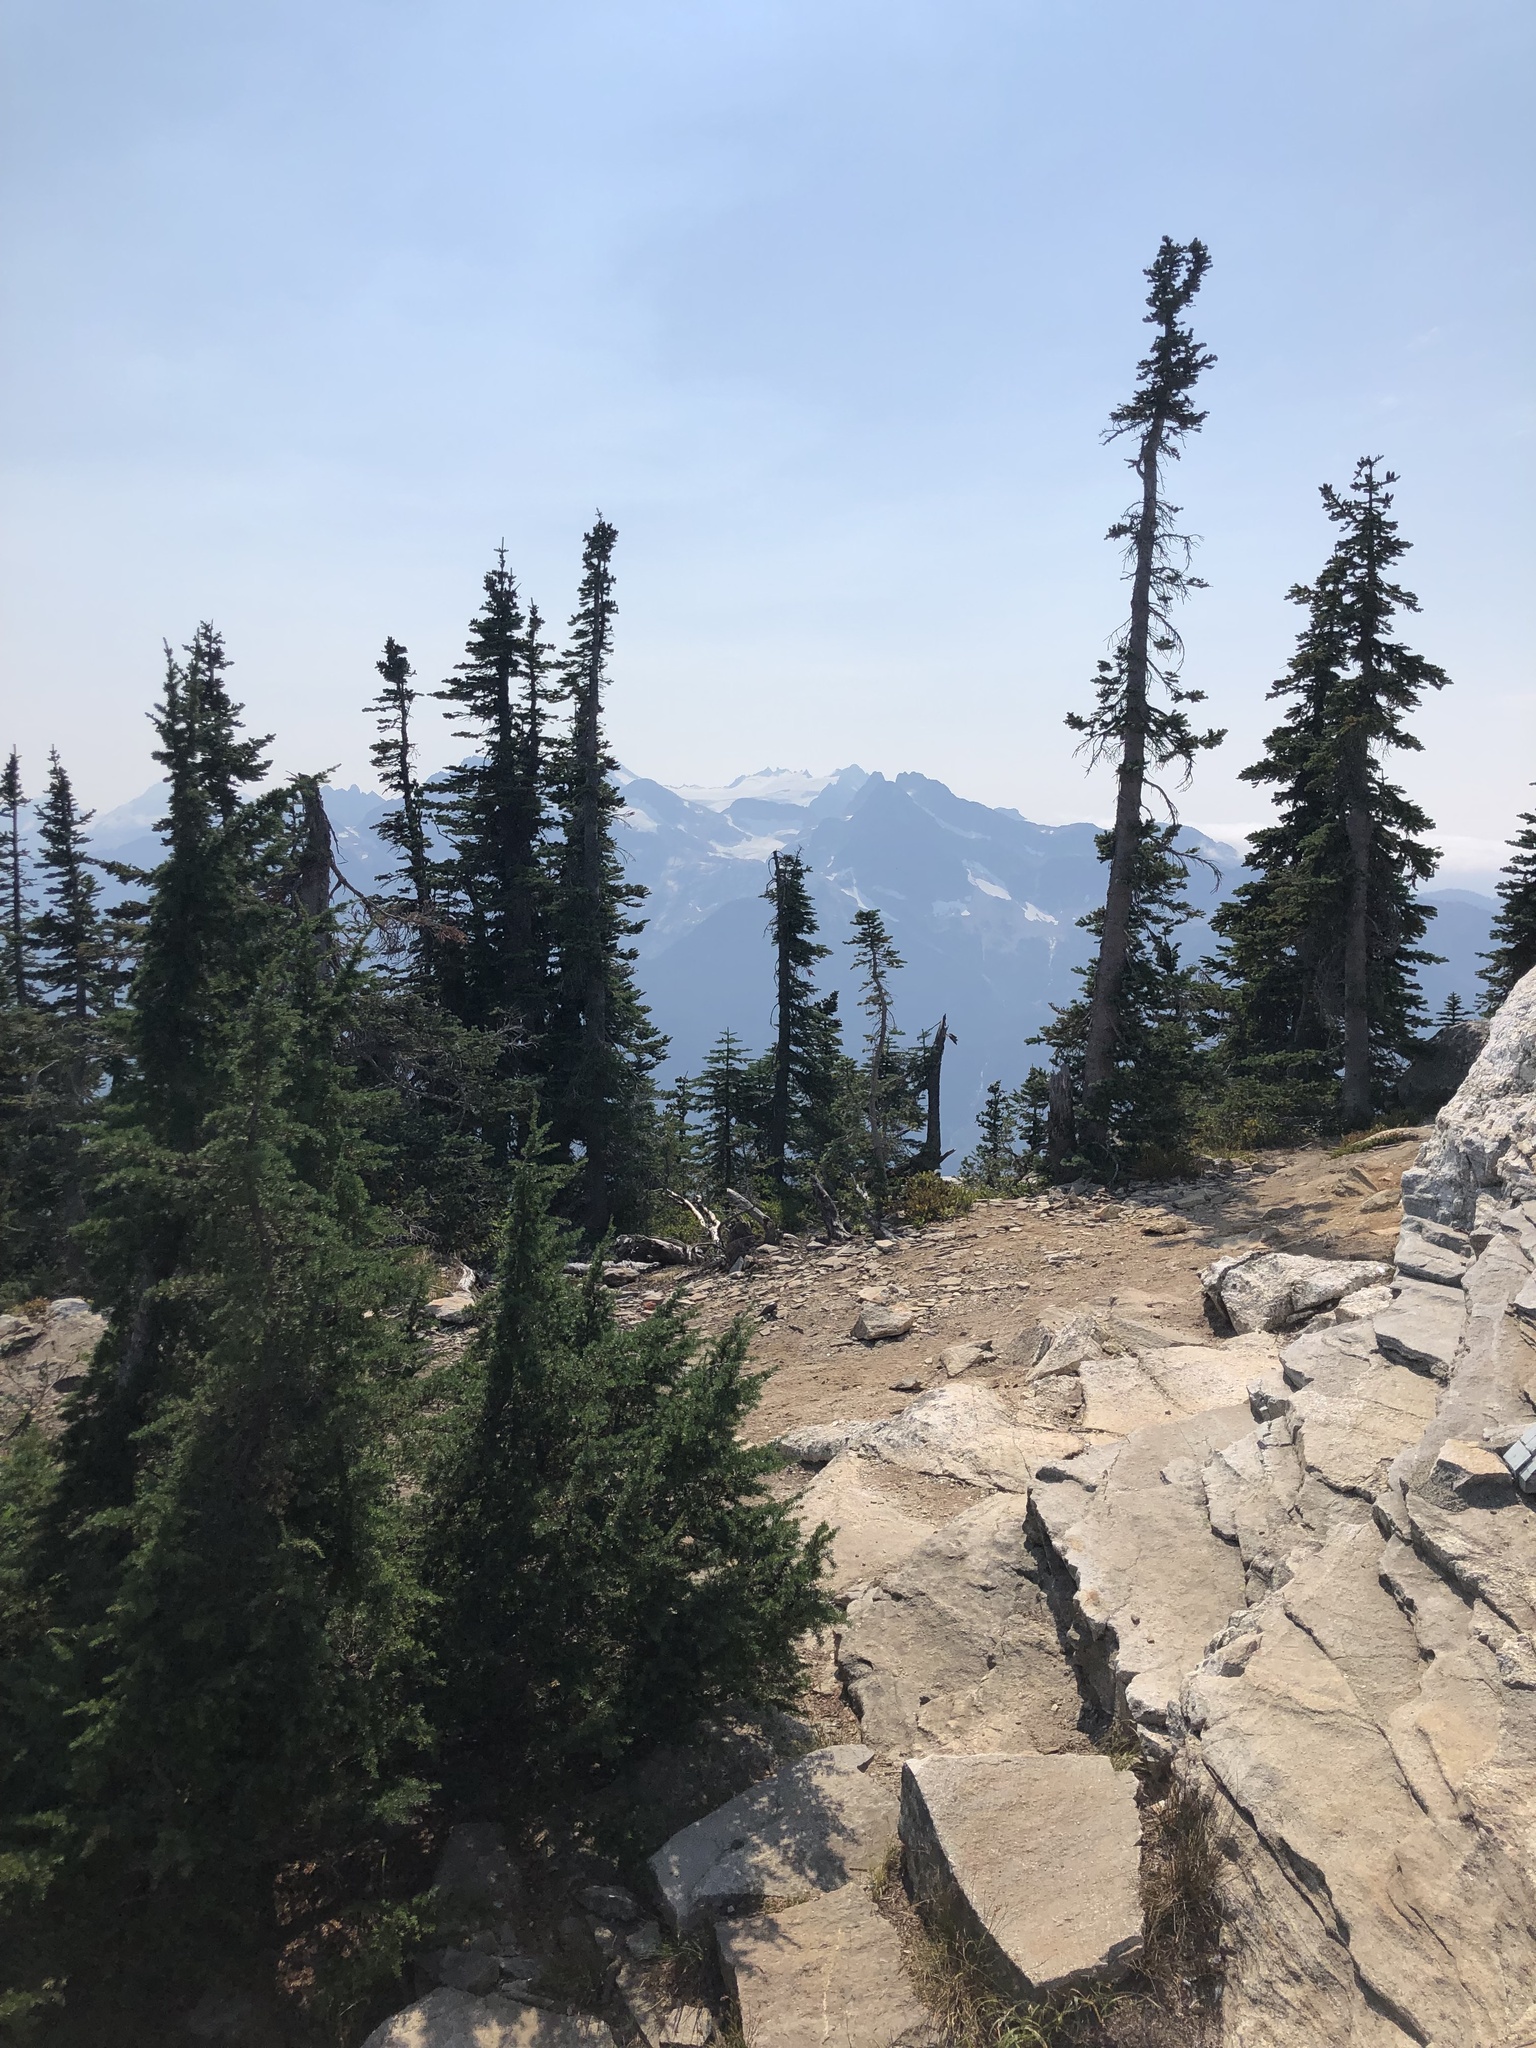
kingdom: Plantae
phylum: Tracheophyta
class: Pinopsida
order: Pinales
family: Pinaceae
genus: Tsuga
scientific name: Tsuga mertensiana
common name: Mountain hemlock
